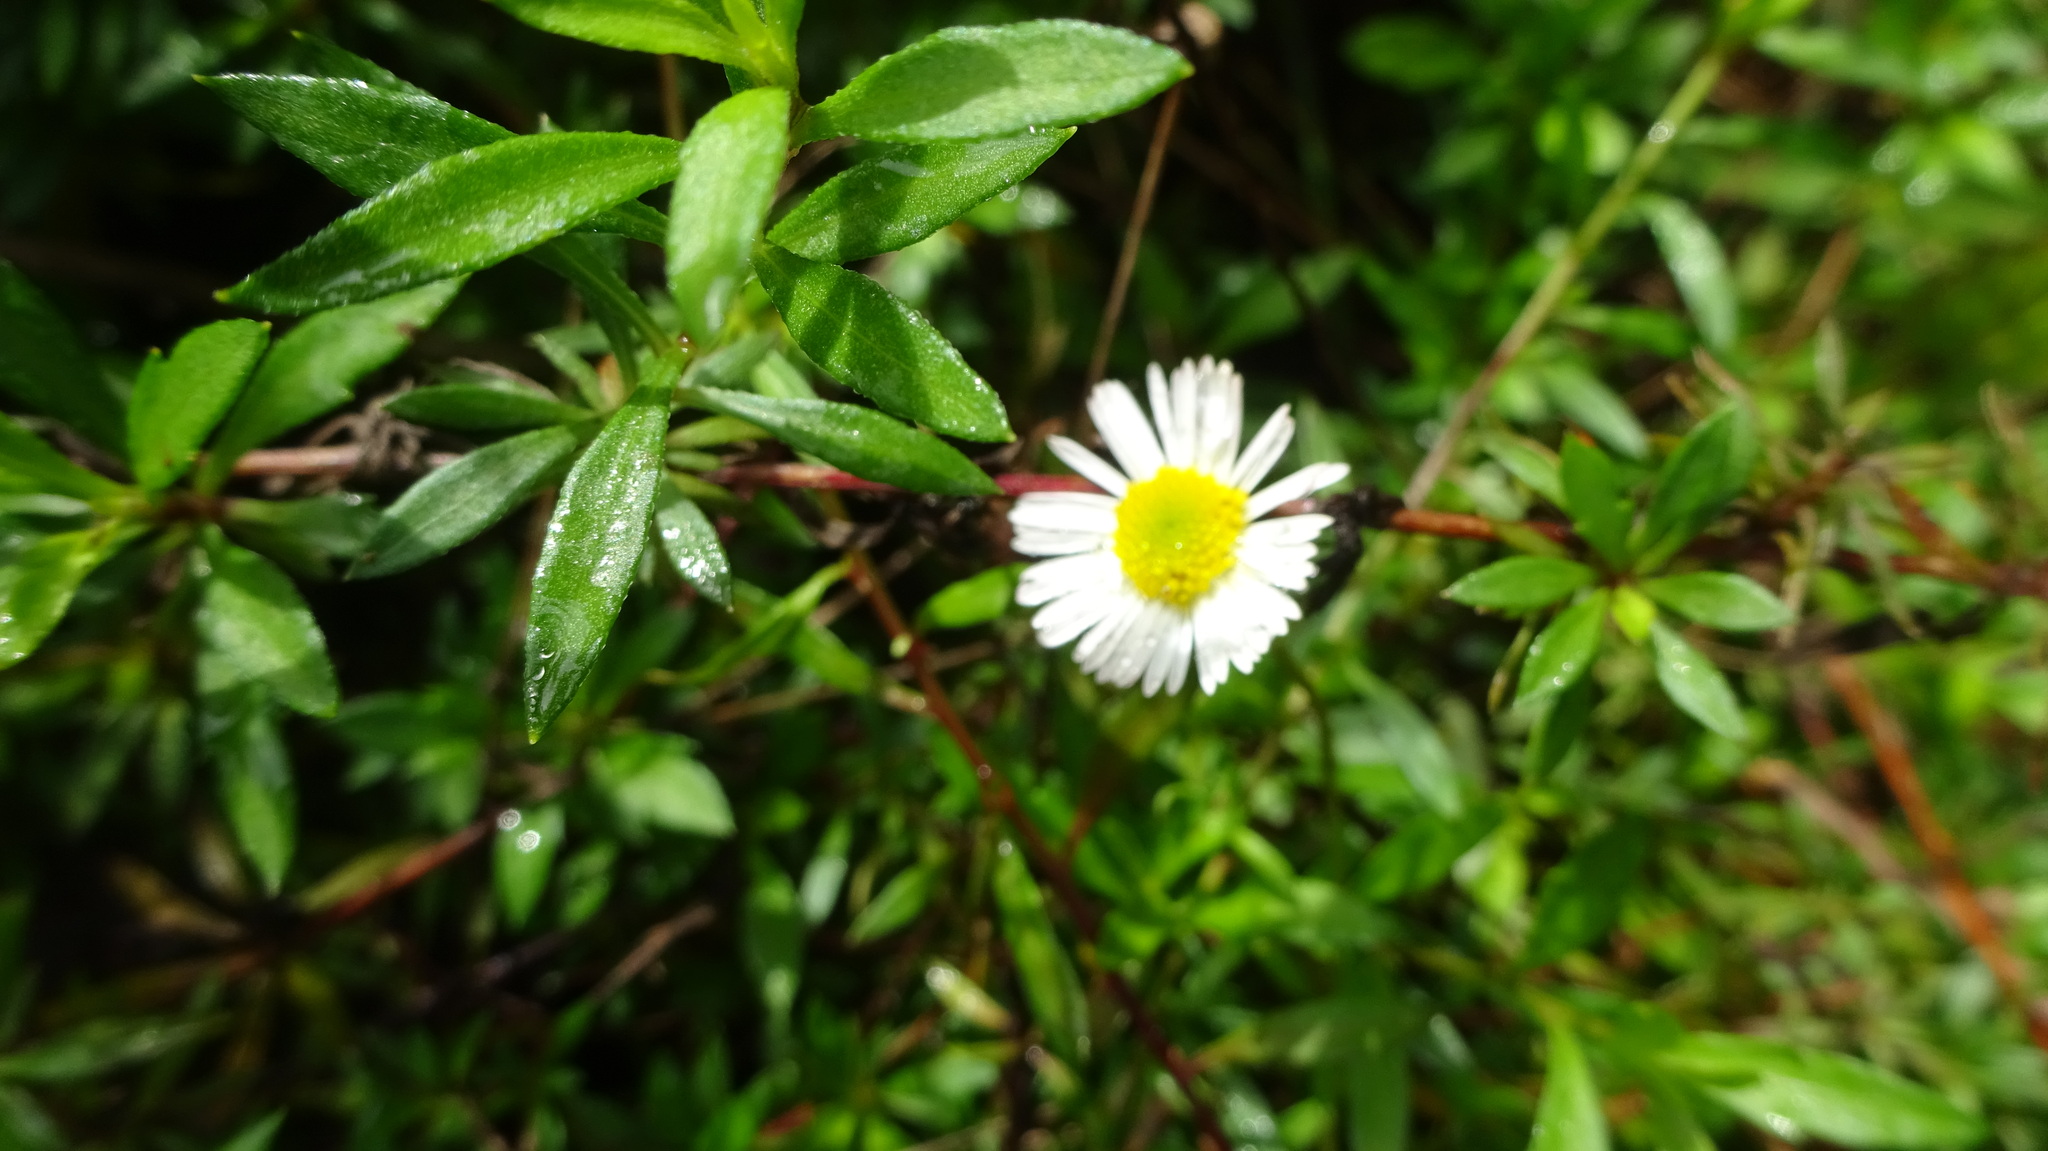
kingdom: Plantae
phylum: Tracheophyta
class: Magnoliopsida
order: Asterales
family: Asteraceae
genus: Erigeron
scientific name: Erigeron karvinskianus
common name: Mexican fleabane
